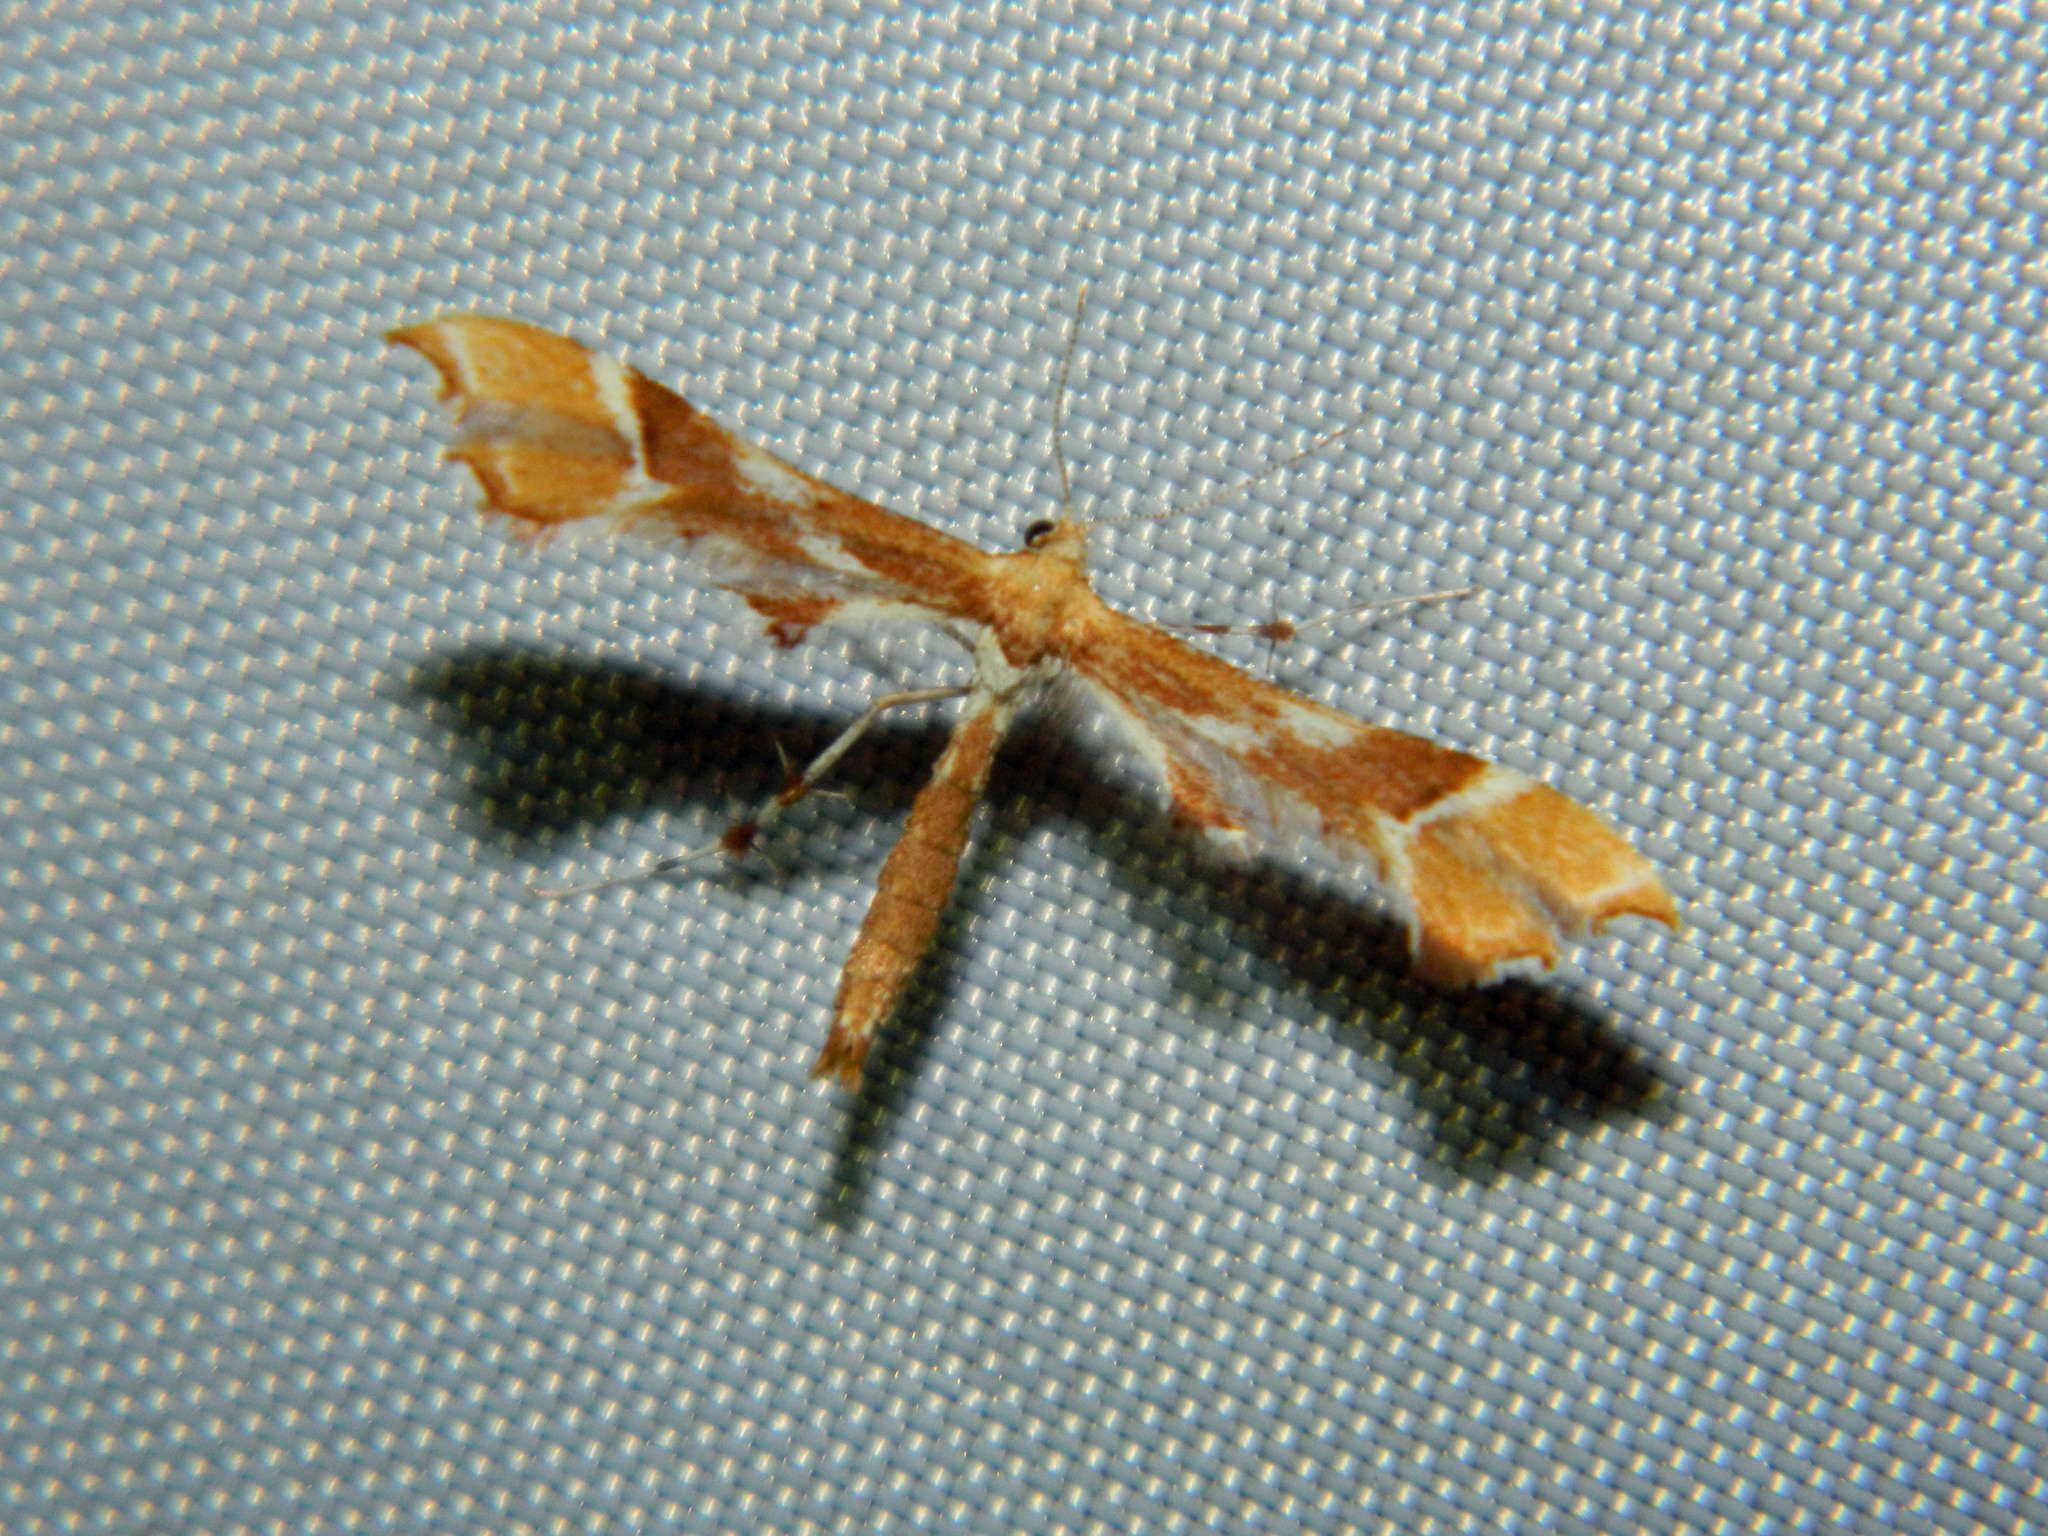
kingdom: Animalia
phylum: Arthropoda
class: Insecta
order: Lepidoptera
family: Pterophoridae
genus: Cnaemidophorus
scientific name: Cnaemidophorus rhododactyla
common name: Rose plume
